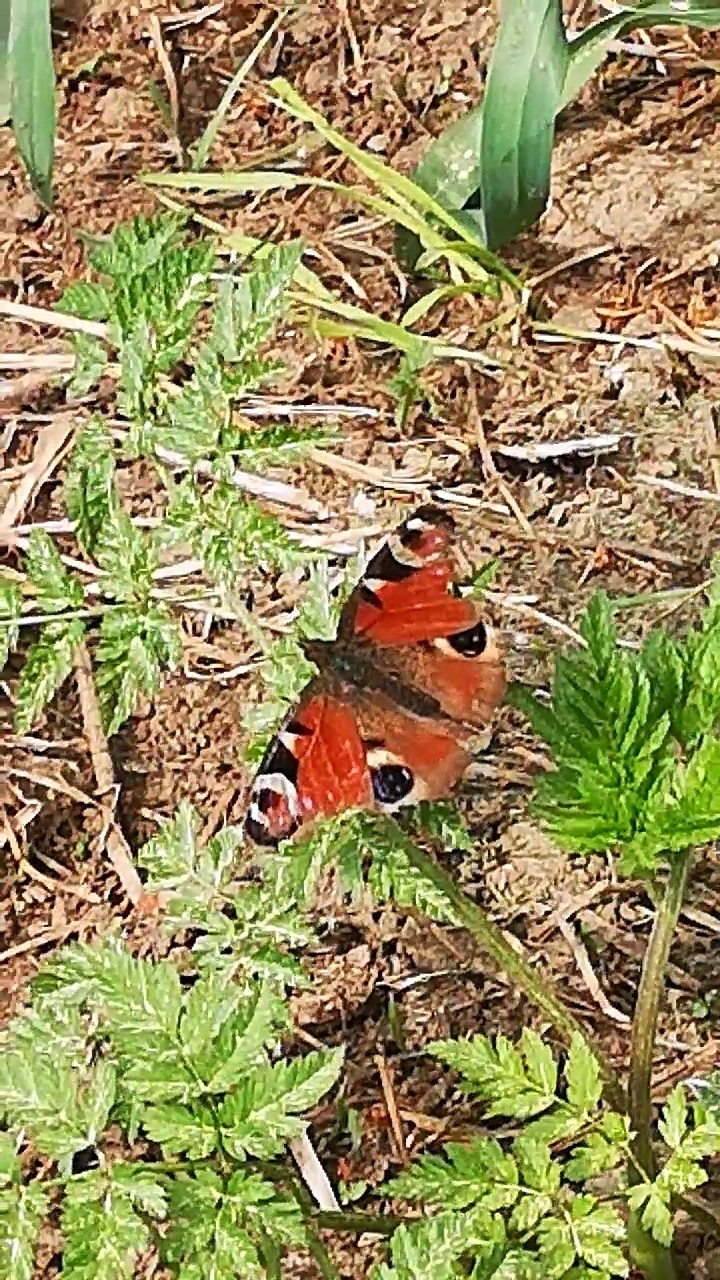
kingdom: Animalia
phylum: Arthropoda
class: Insecta
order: Lepidoptera
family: Nymphalidae
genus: Aglais
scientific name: Aglais io
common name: Peacock
